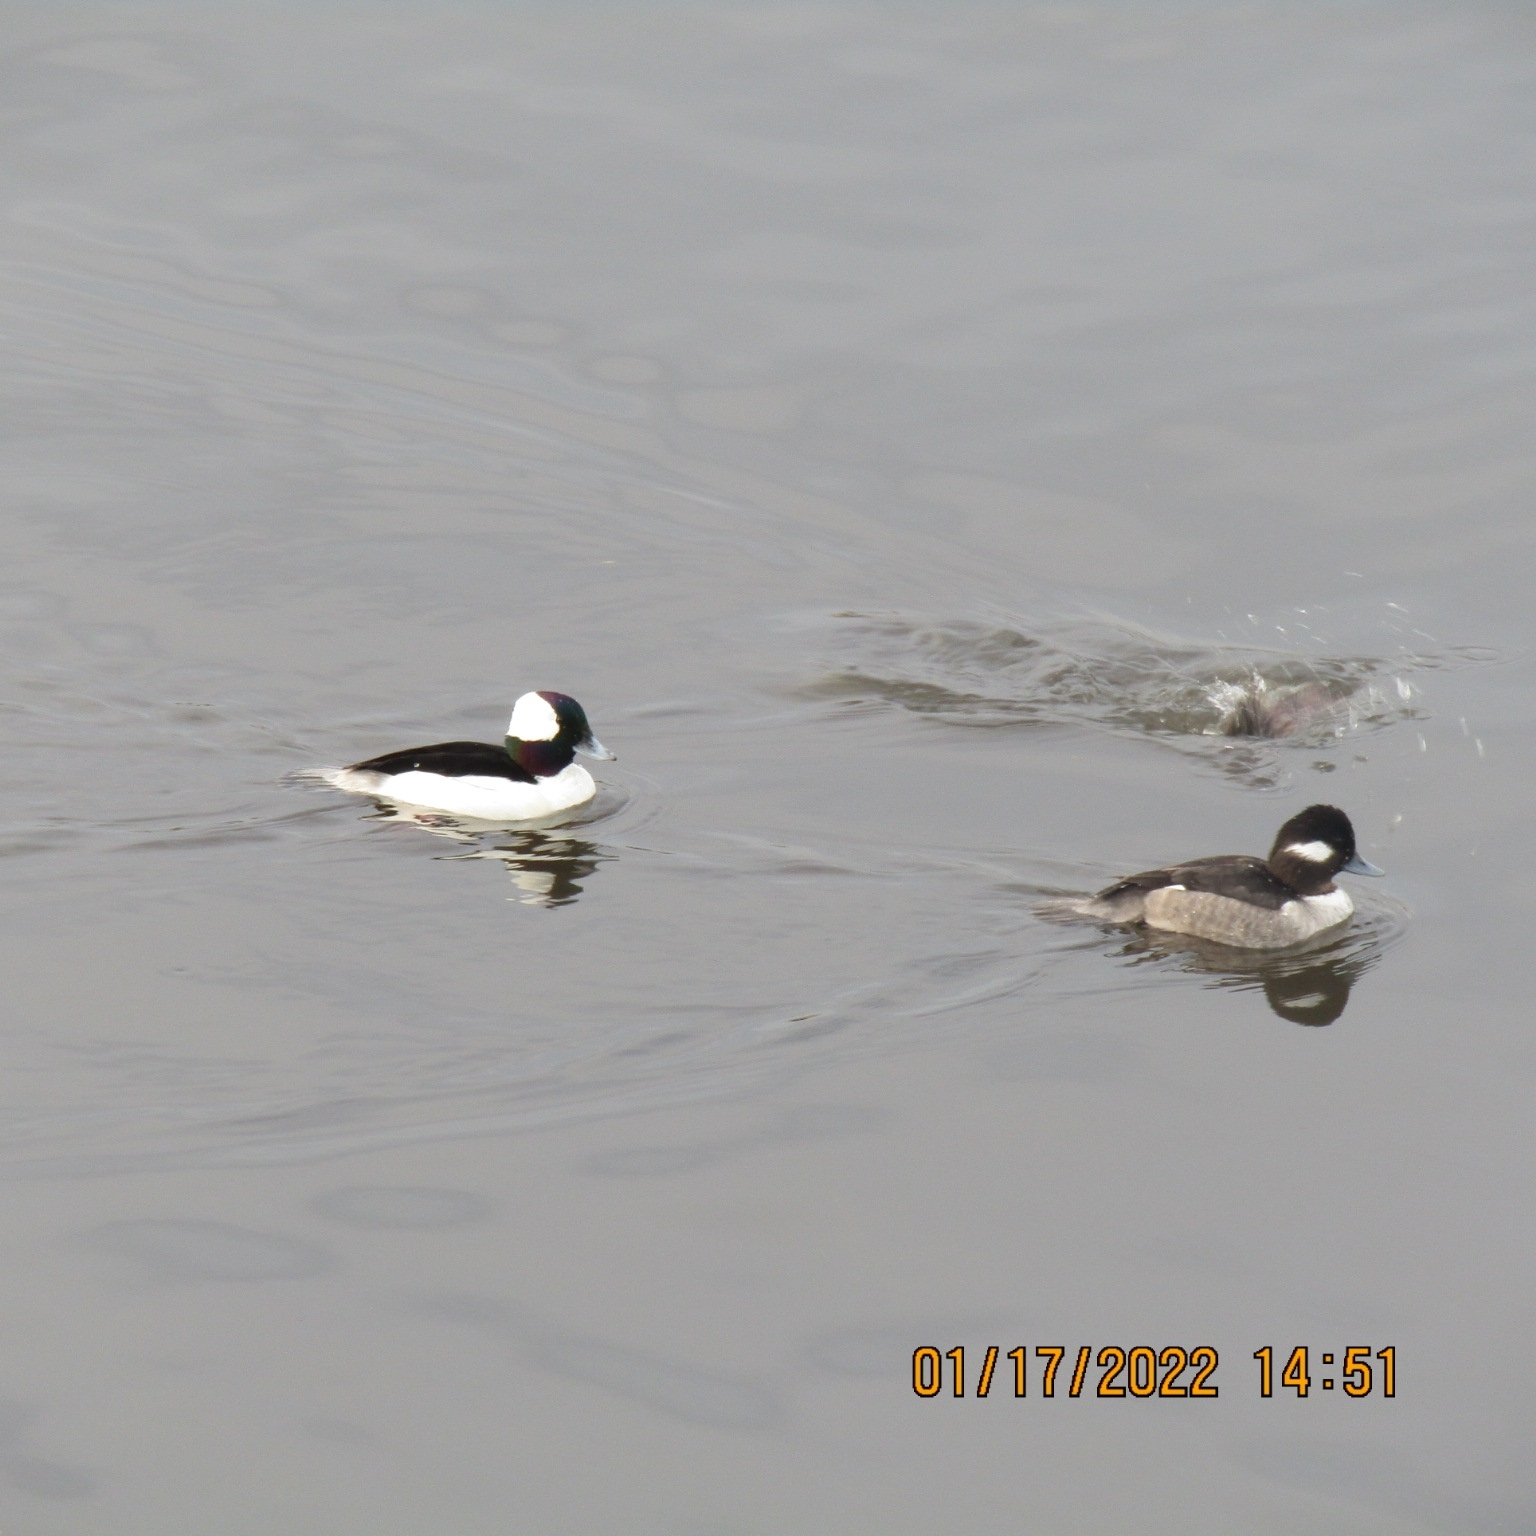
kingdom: Animalia
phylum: Chordata
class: Aves
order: Anseriformes
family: Anatidae
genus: Bucephala
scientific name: Bucephala albeola
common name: Bufflehead
